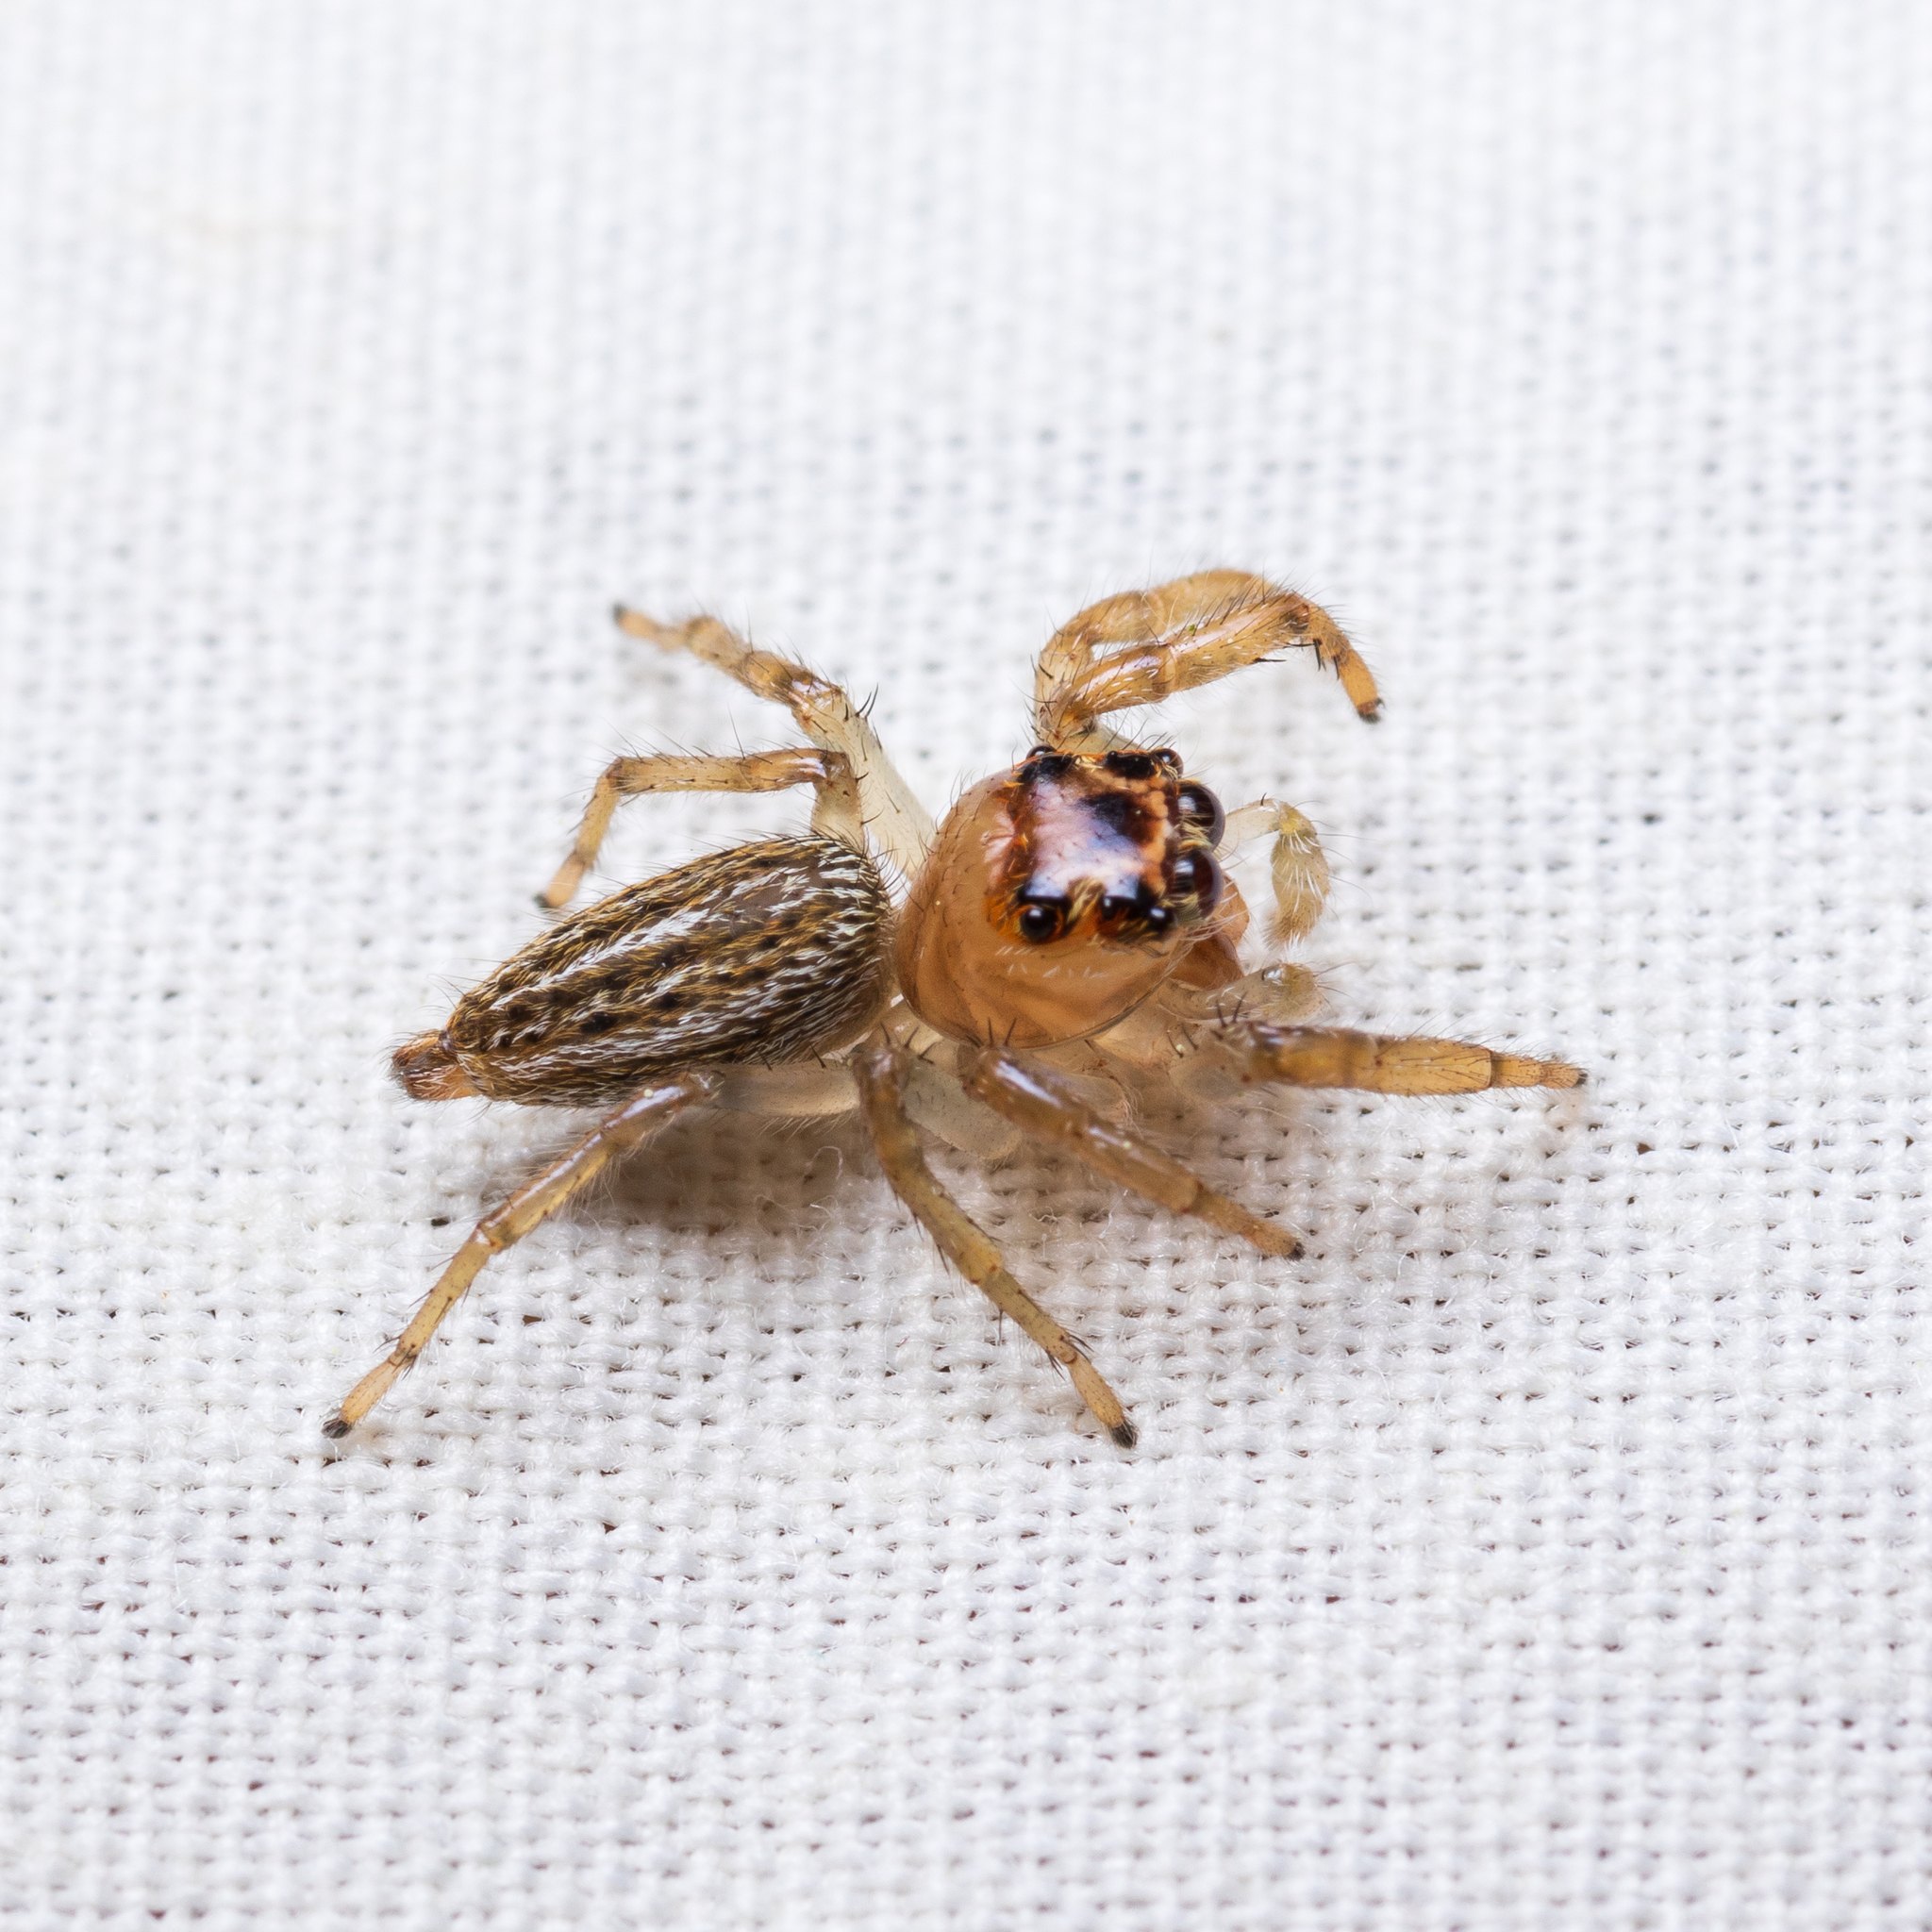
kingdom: Animalia
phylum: Arthropoda
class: Arachnida
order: Araneae
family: Salticidae
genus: Colonus
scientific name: Colonus sylvanus
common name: Jumping spiders
